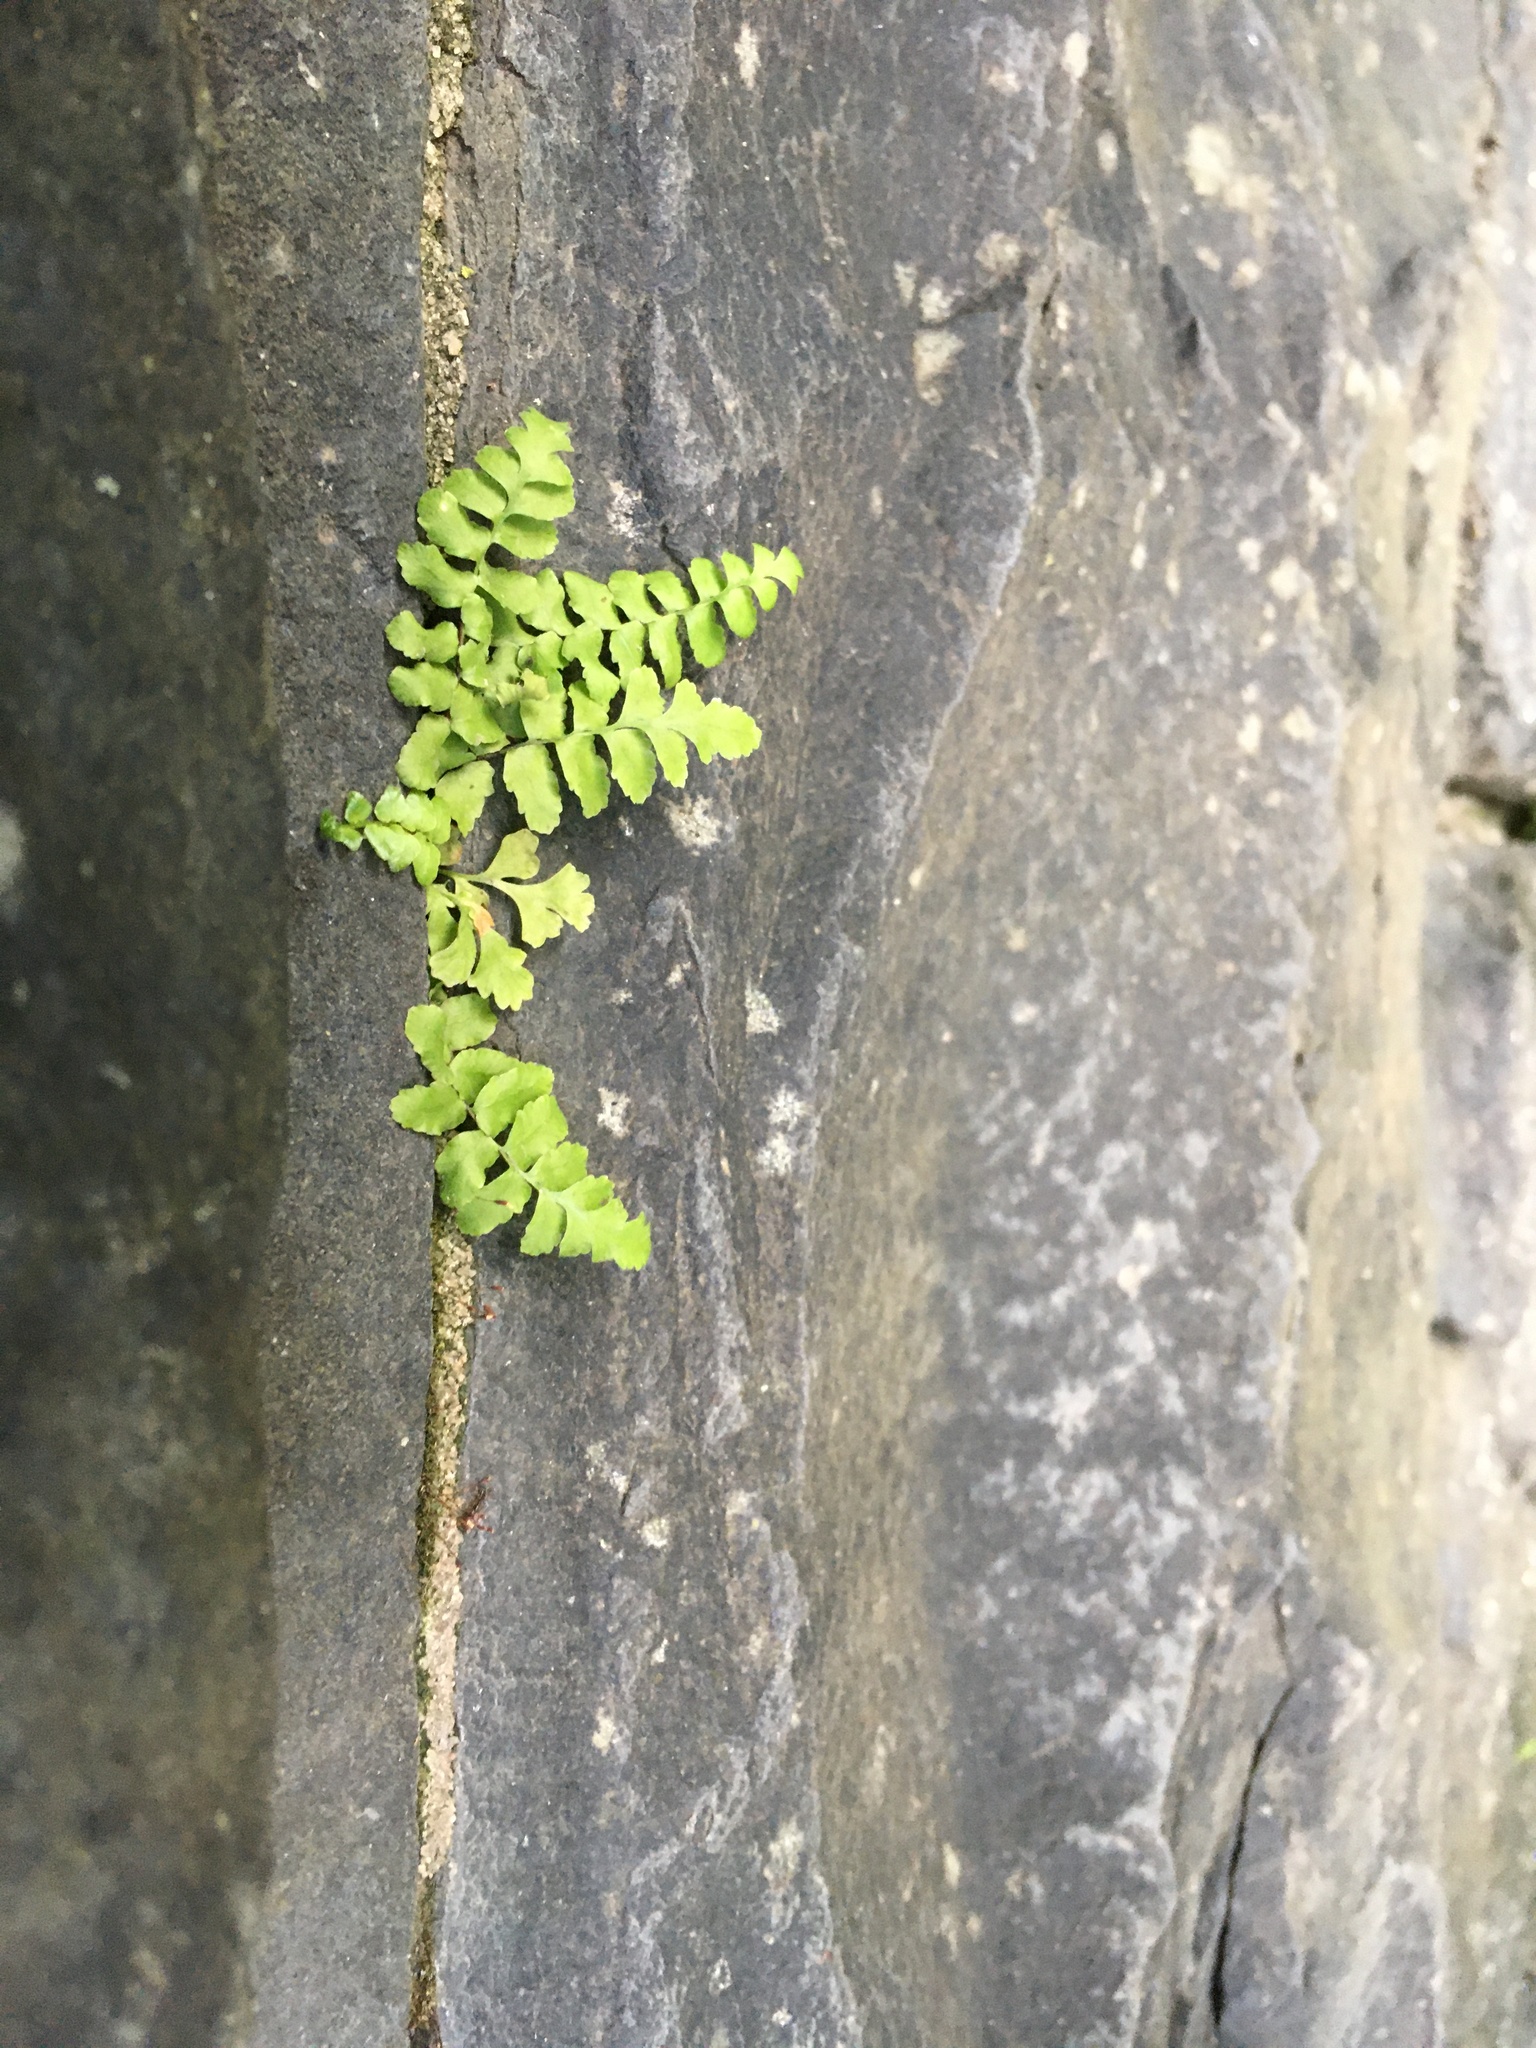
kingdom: Plantae
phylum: Tracheophyta
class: Polypodiopsida
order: Polypodiales
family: Aspleniaceae
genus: Asplenium
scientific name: Asplenium platyneuron
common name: Ebony spleenwort
